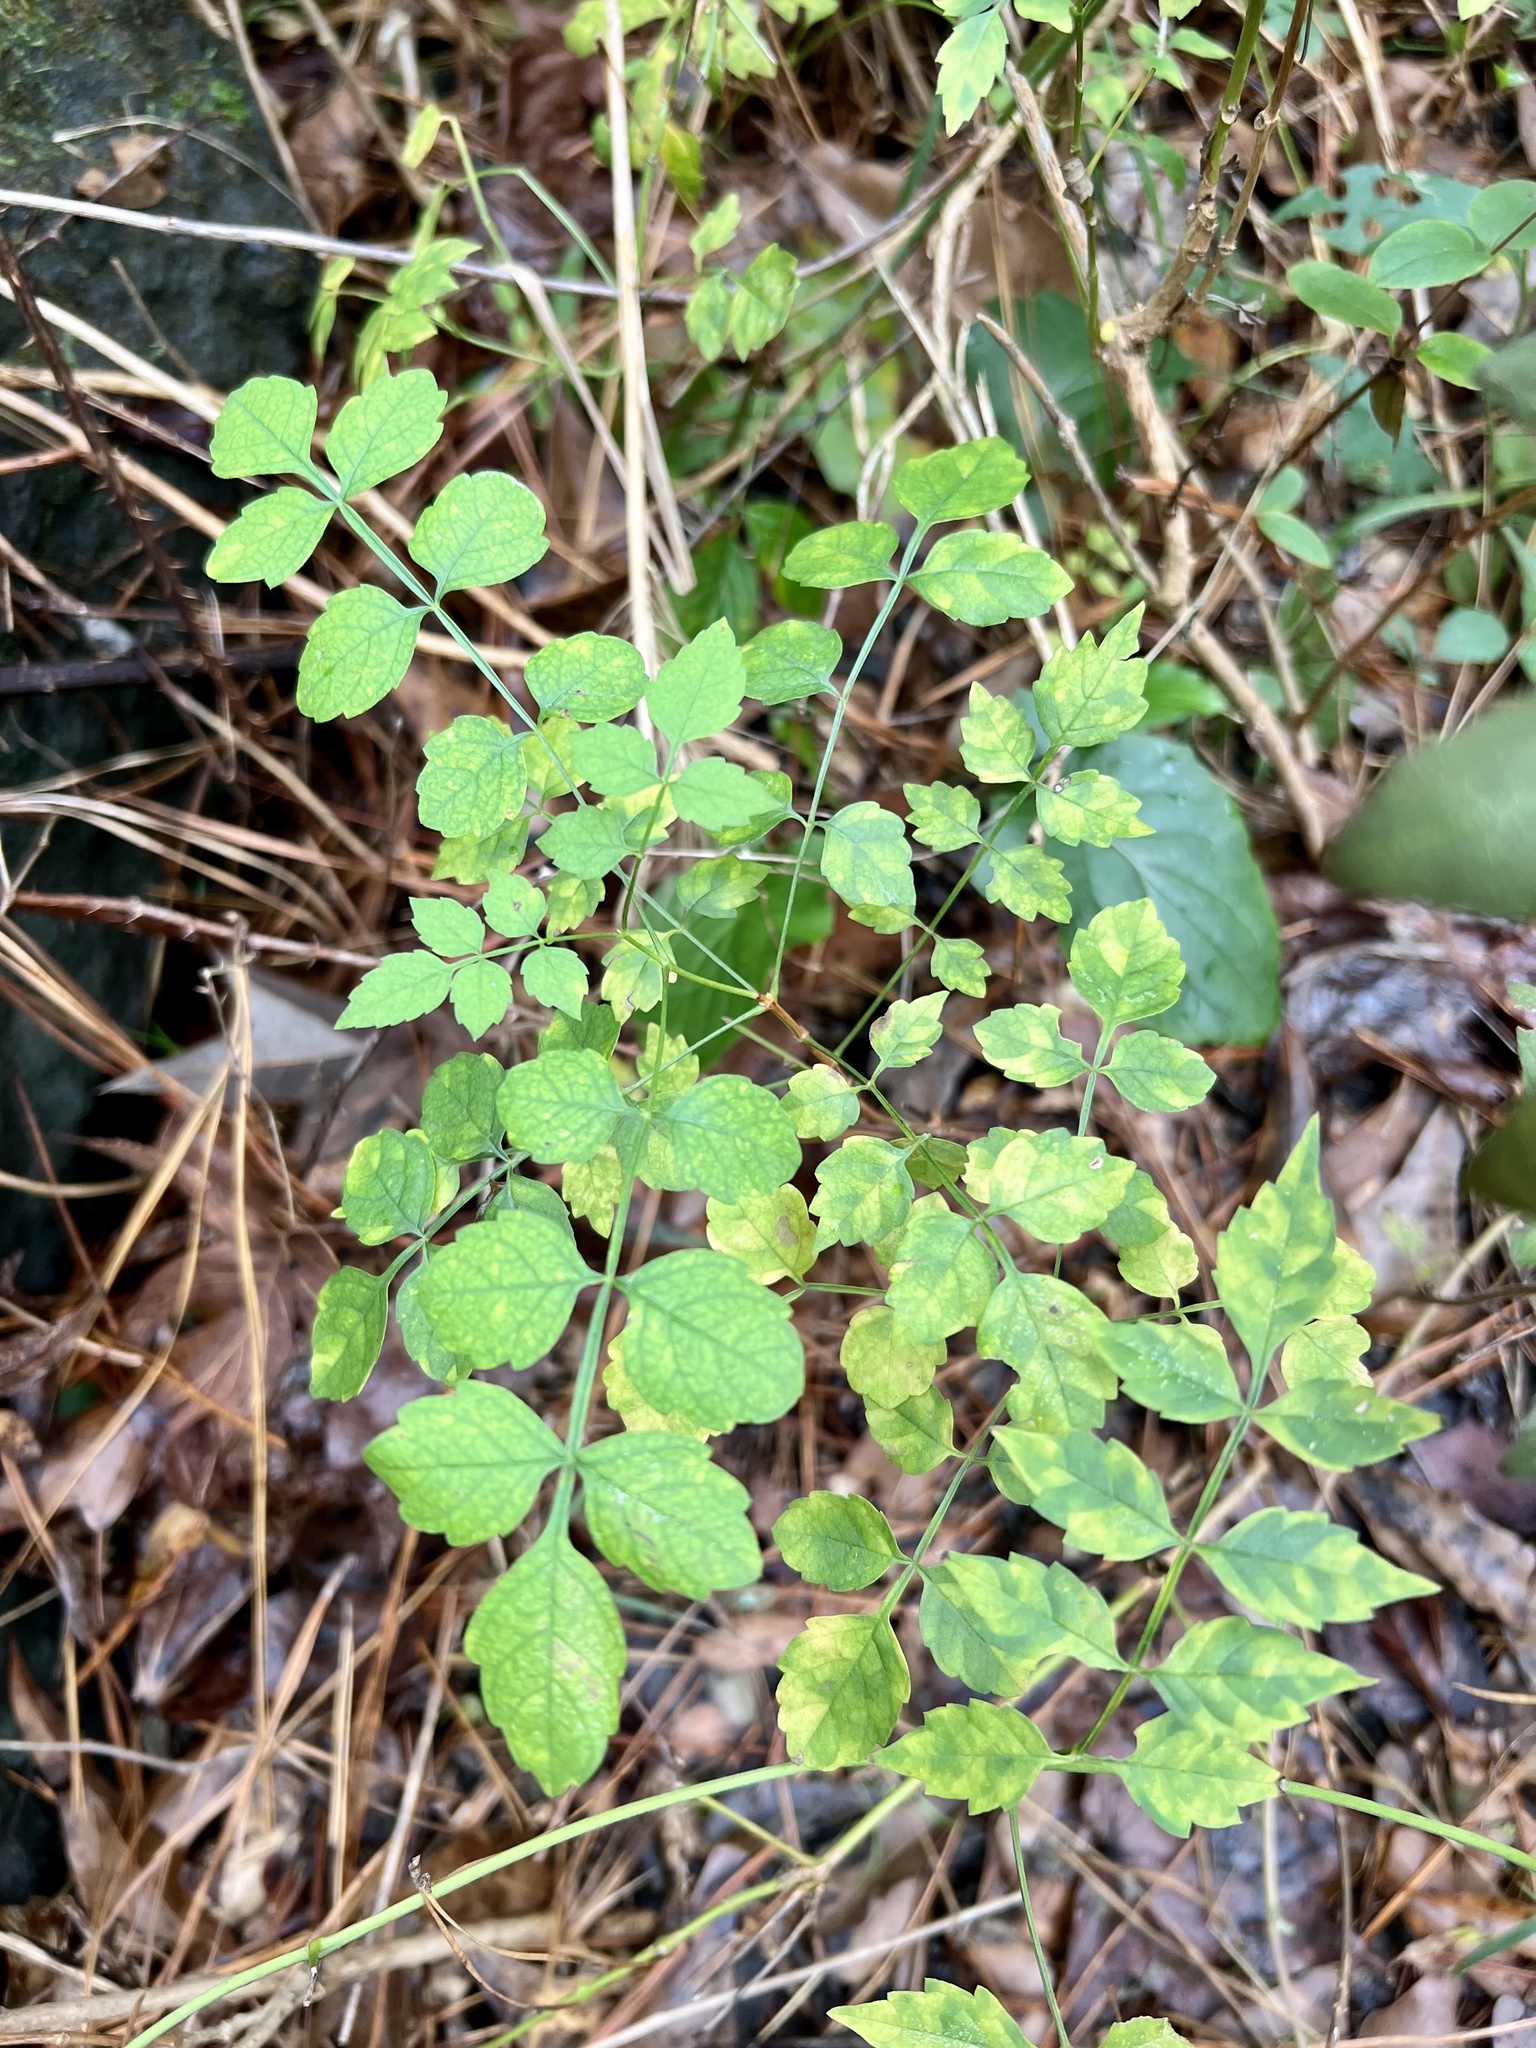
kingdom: Plantae
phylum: Tracheophyta
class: Magnoliopsida
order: Lamiales
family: Bignoniaceae
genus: Campsis
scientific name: Campsis radicans
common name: Trumpet-creeper
